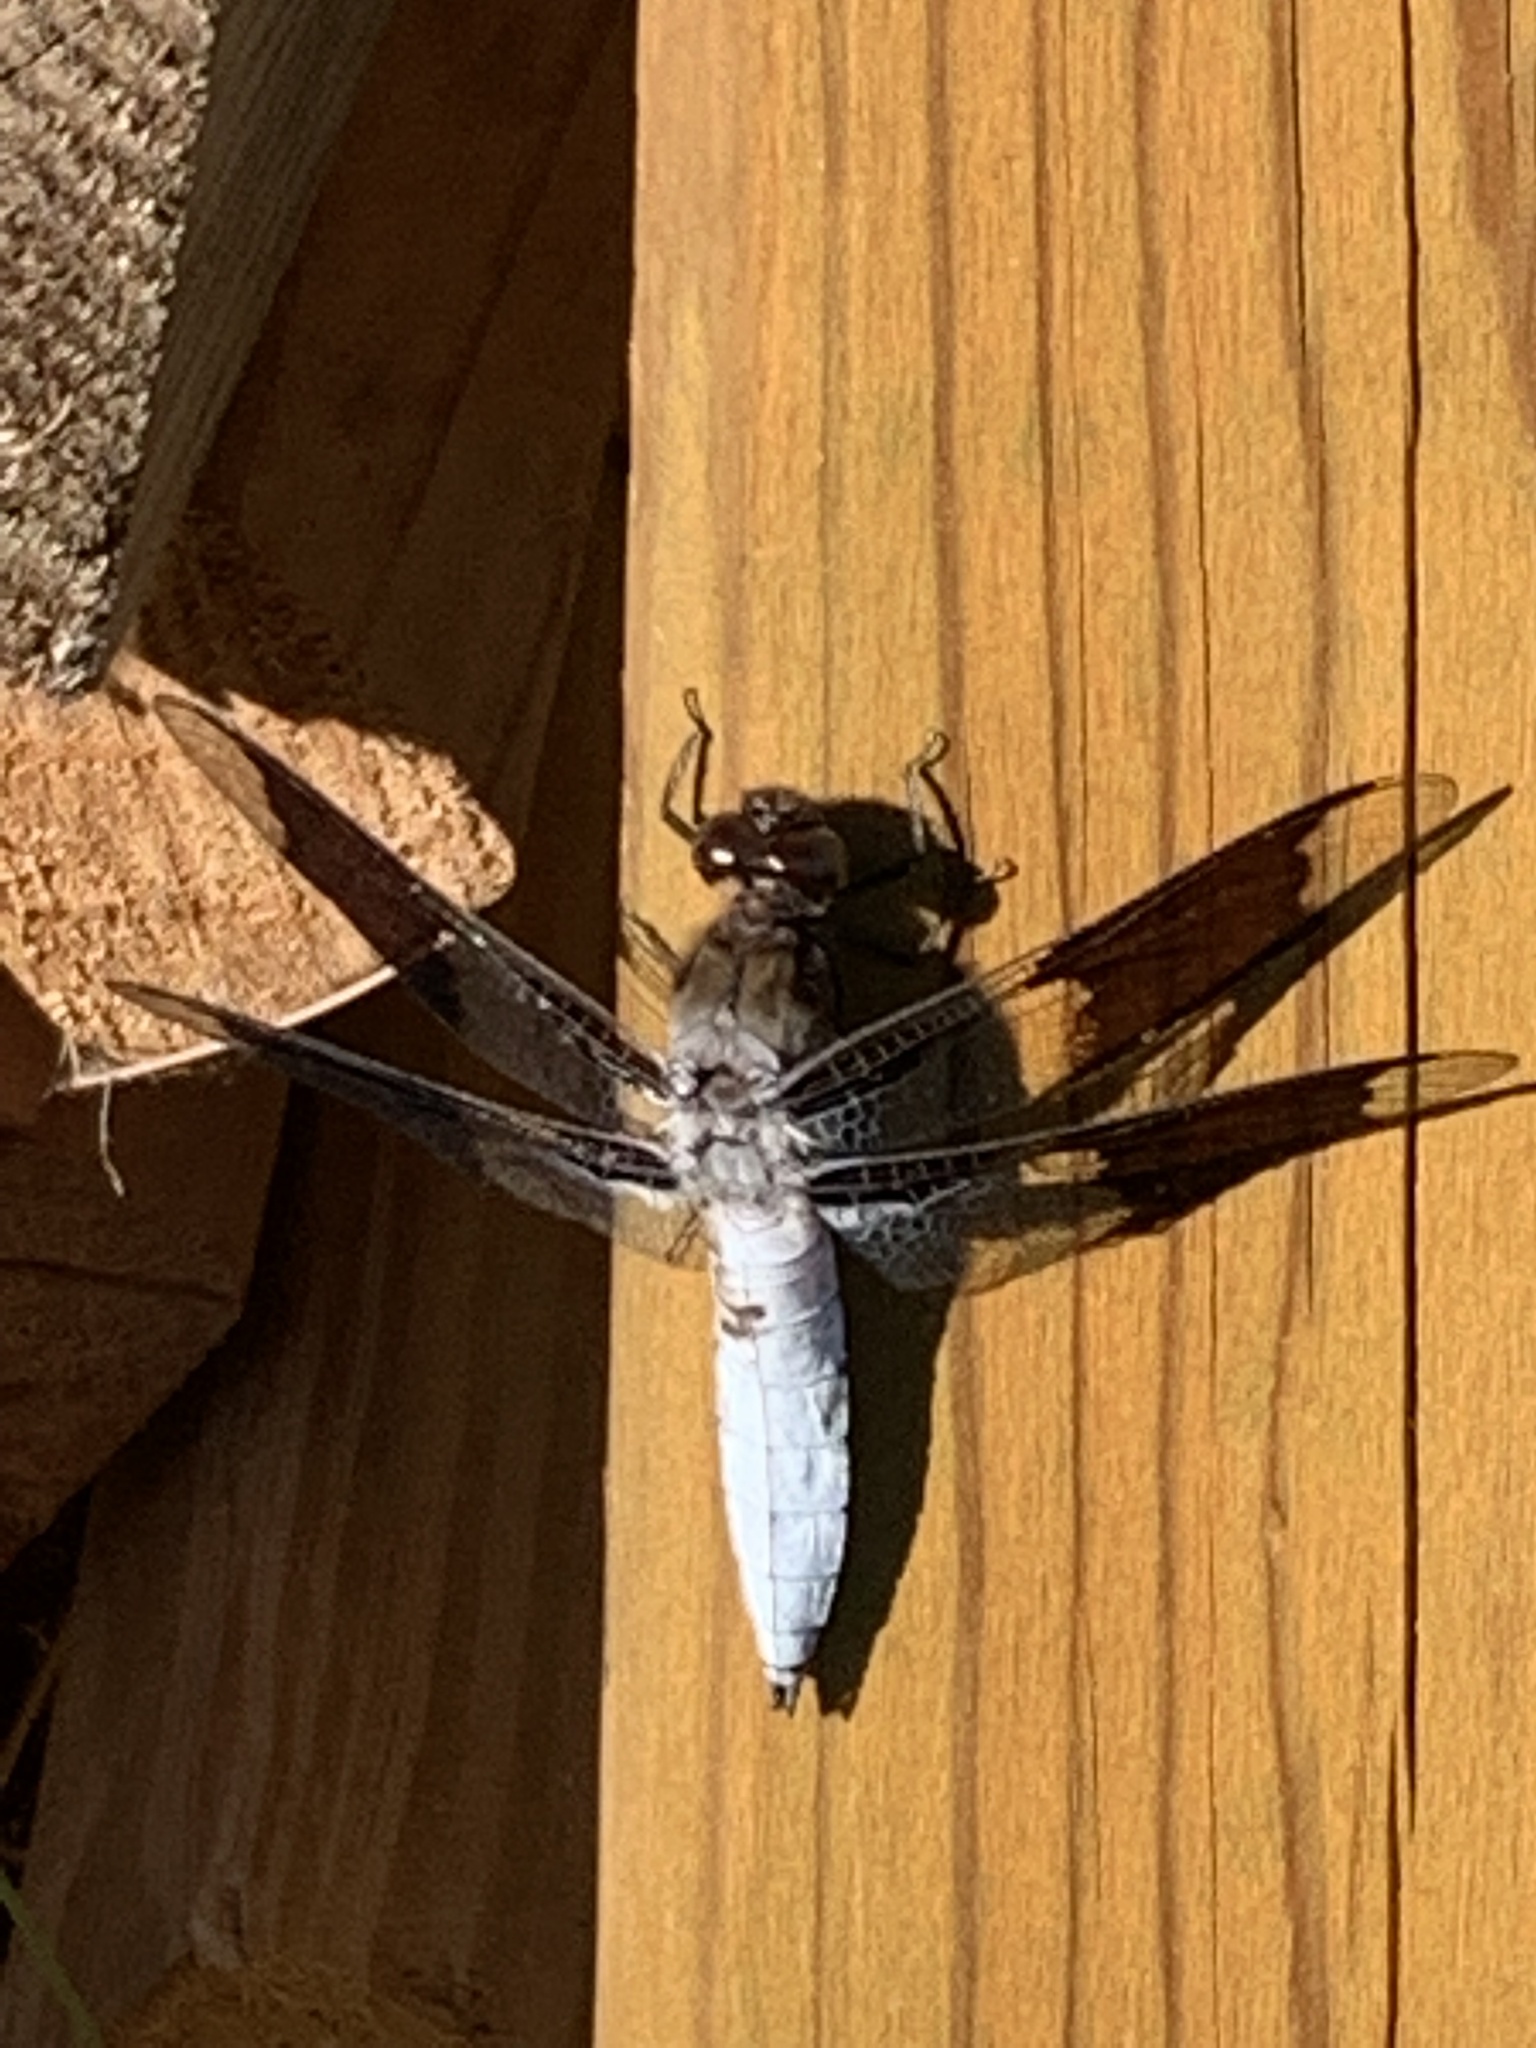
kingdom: Animalia
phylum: Arthropoda
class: Insecta
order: Odonata
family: Libellulidae
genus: Plathemis
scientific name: Plathemis lydia
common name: Common whitetail
